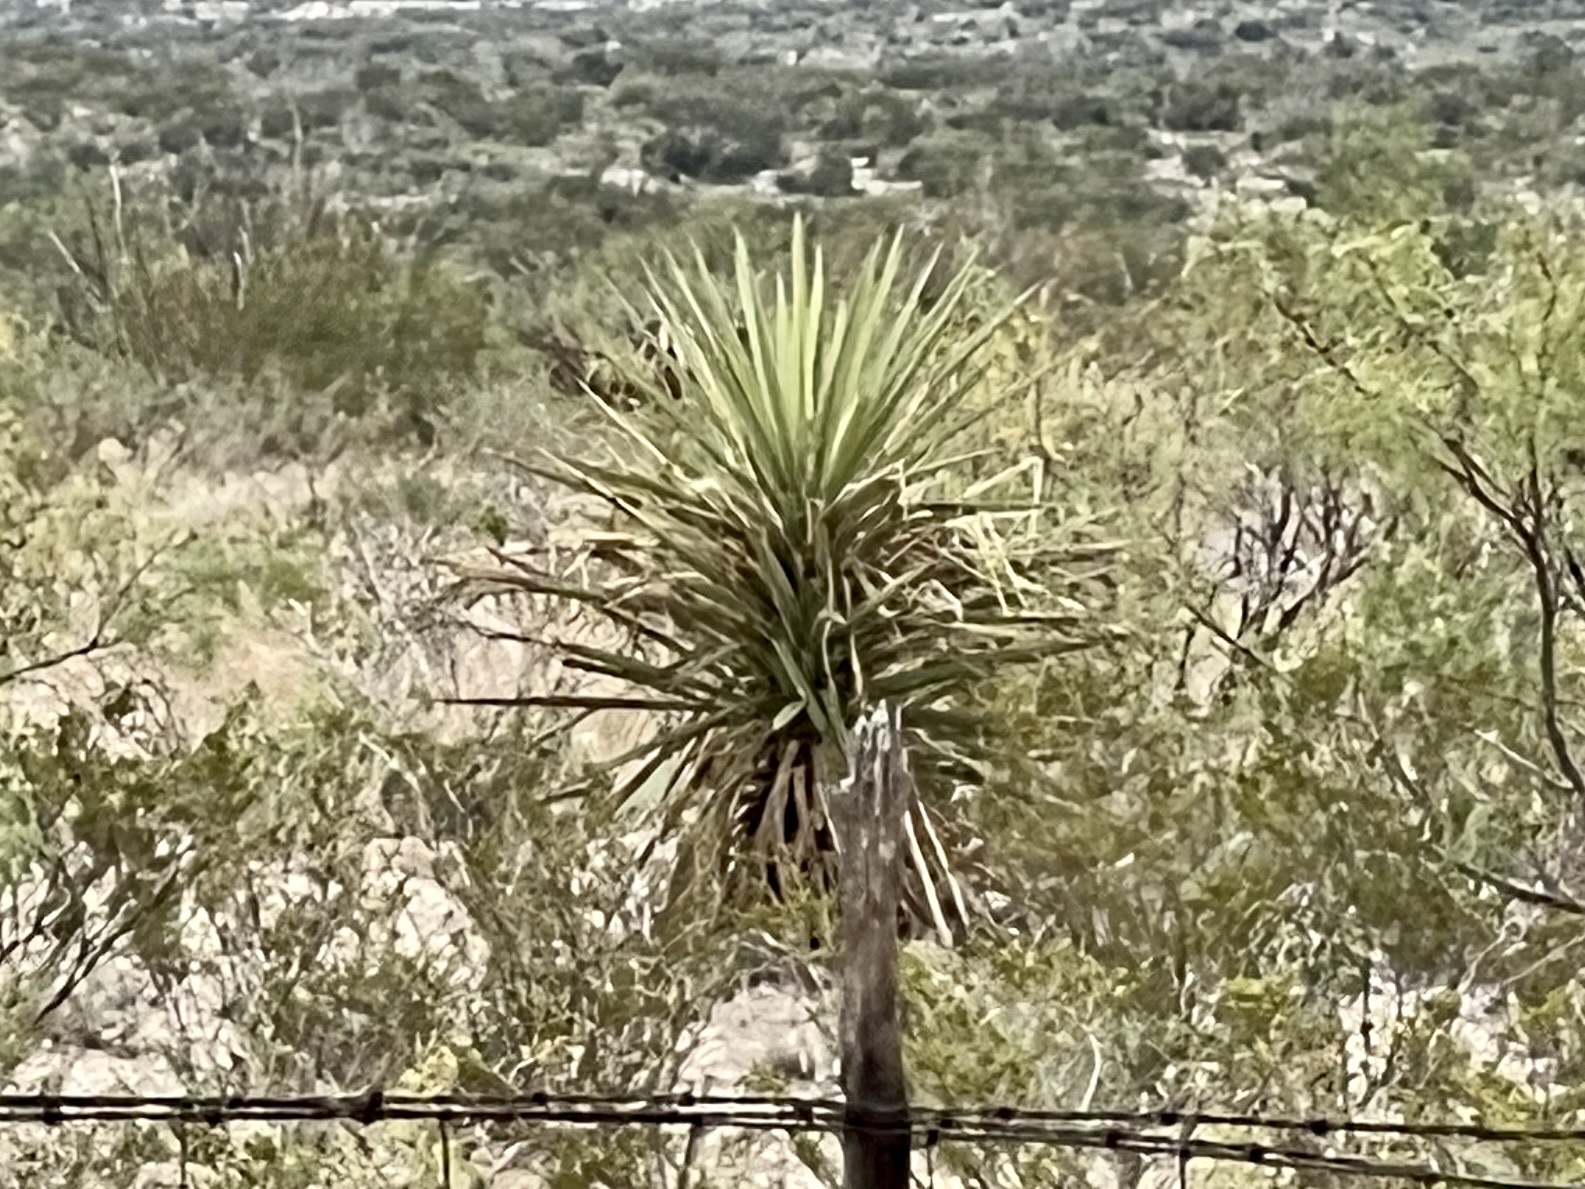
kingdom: Plantae
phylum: Tracheophyta
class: Liliopsida
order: Asparagales
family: Asparagaceae
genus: Yucca
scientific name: Yucca treculiana
